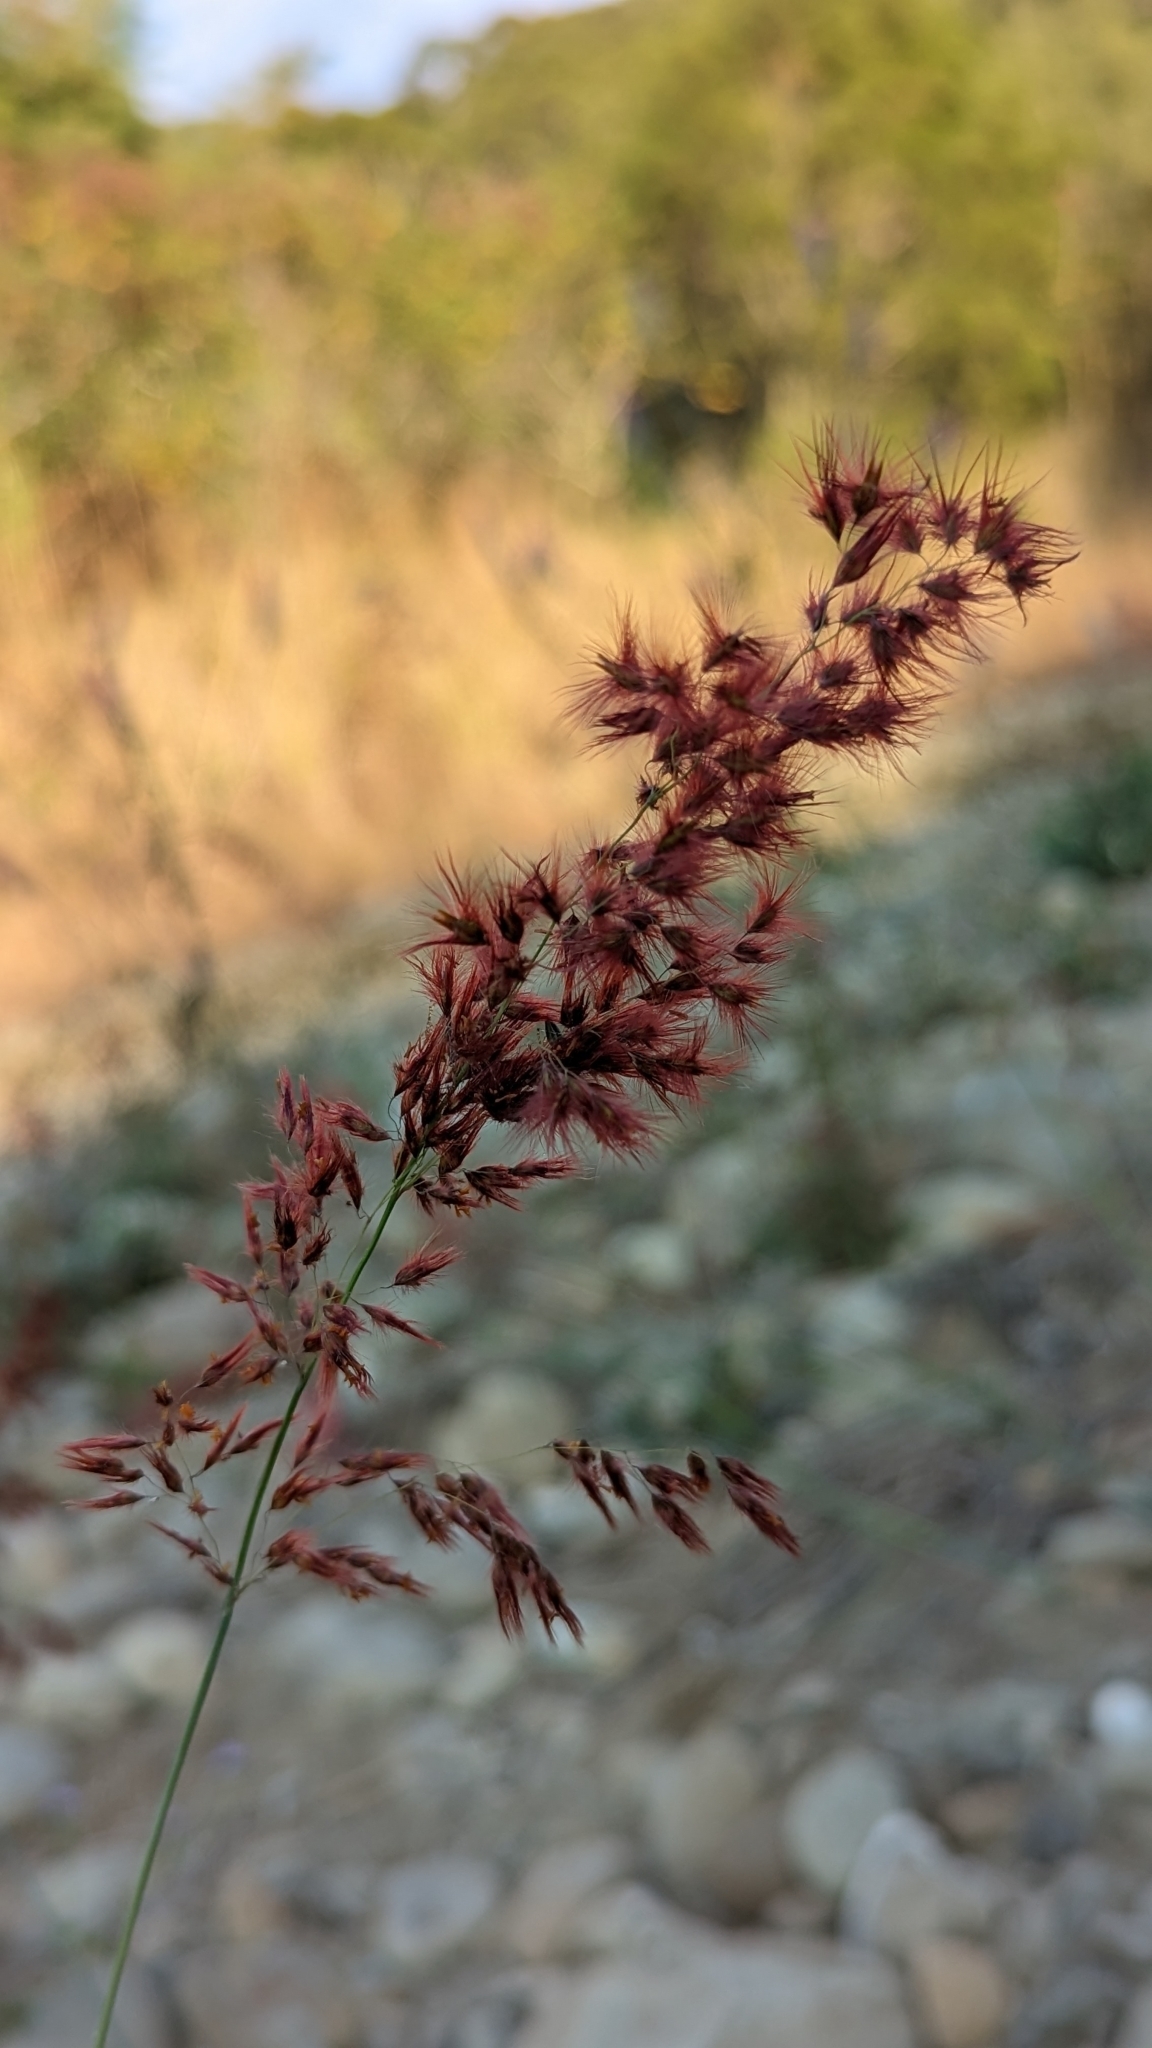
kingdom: Plantae
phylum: Tracheophyta
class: Liliopsida
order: Poales
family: Poaceae
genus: Melinis
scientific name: Melinis repens
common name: Rose natal grass
